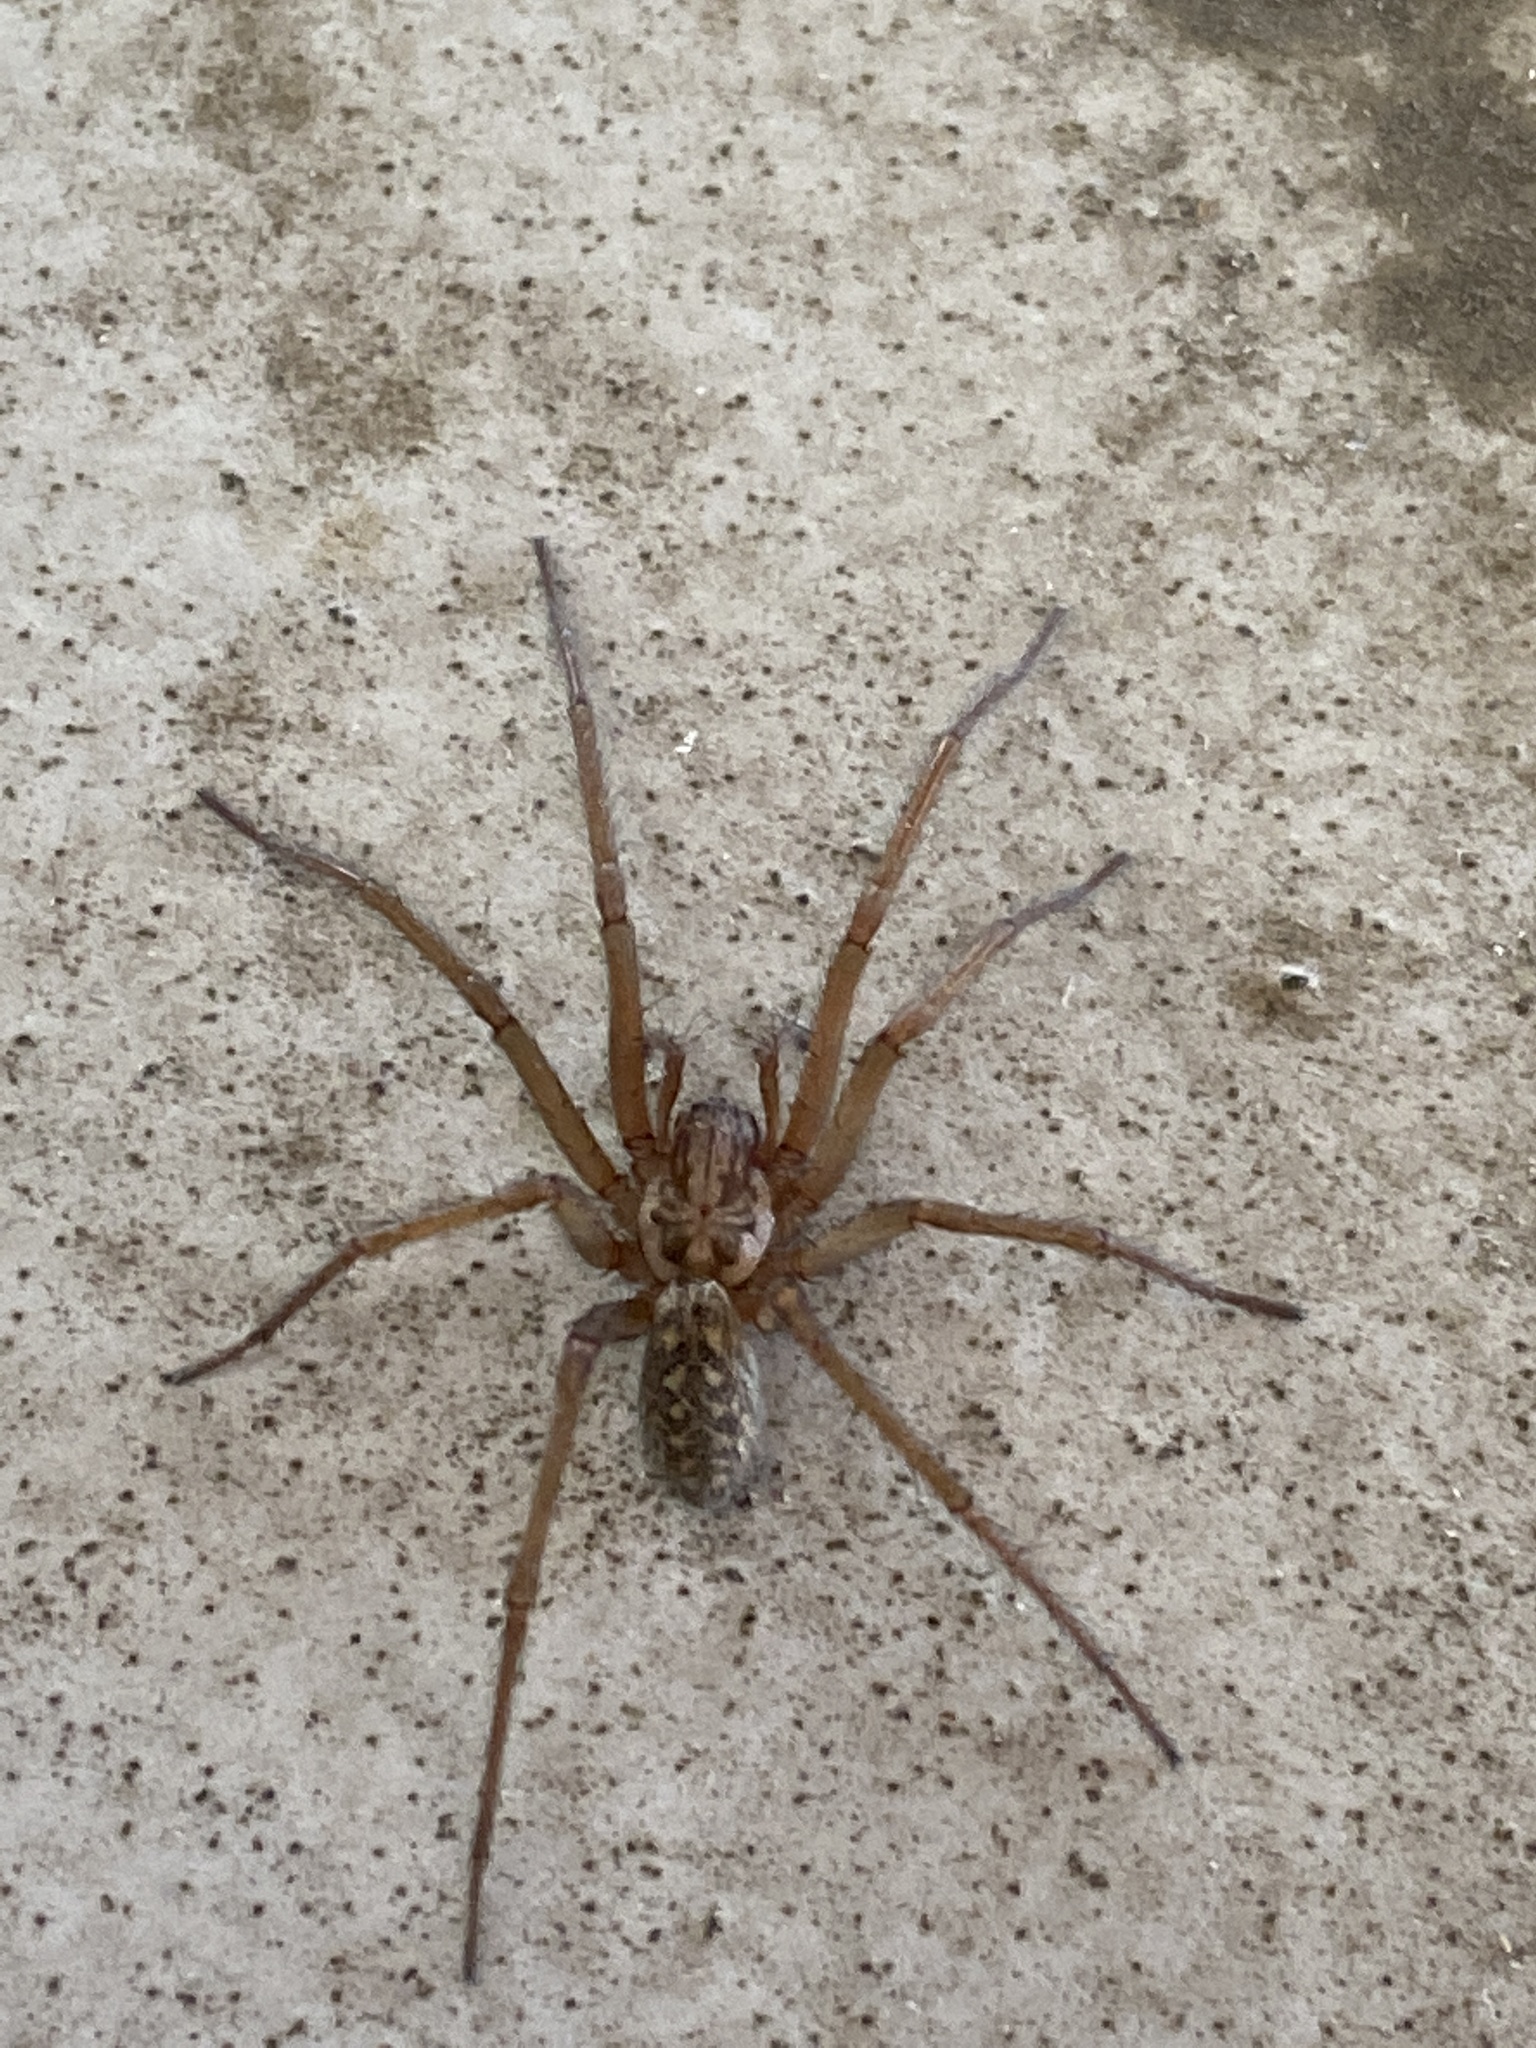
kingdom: Animalia
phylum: Arthropoda
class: Arachnida
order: Araneae
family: Agelenidae
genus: Eratigena
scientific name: Eratigena atrica
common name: Giant house spider
